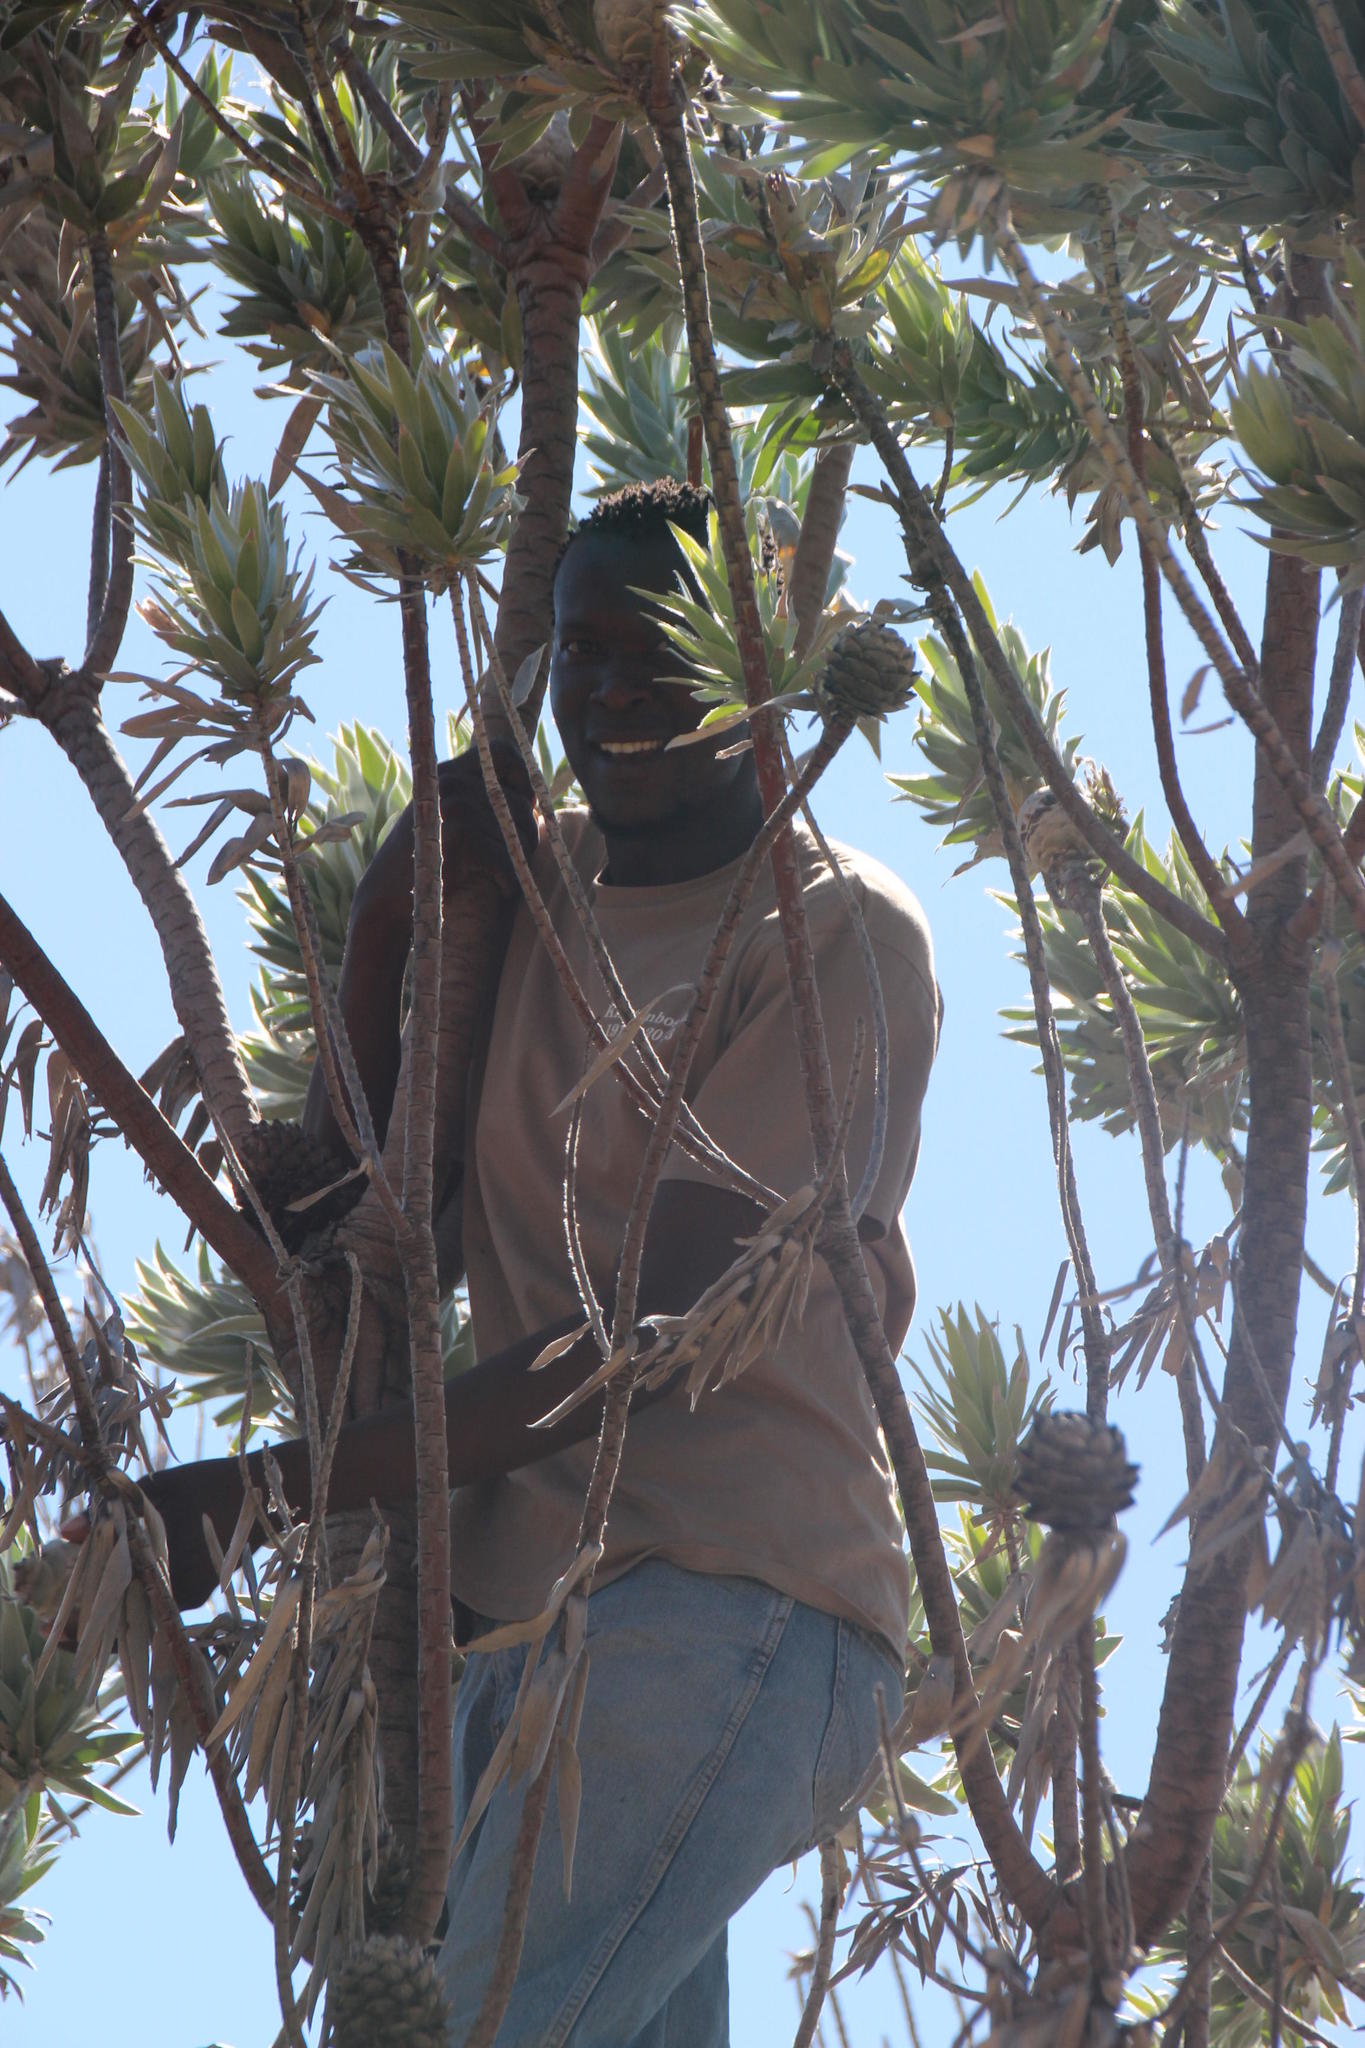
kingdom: Plantae
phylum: Tracheophyta
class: Magnoliopsida
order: Proteales
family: Proteaceae
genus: Leucadendron
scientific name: Leucadendron argenteum
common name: Cape silver tree
